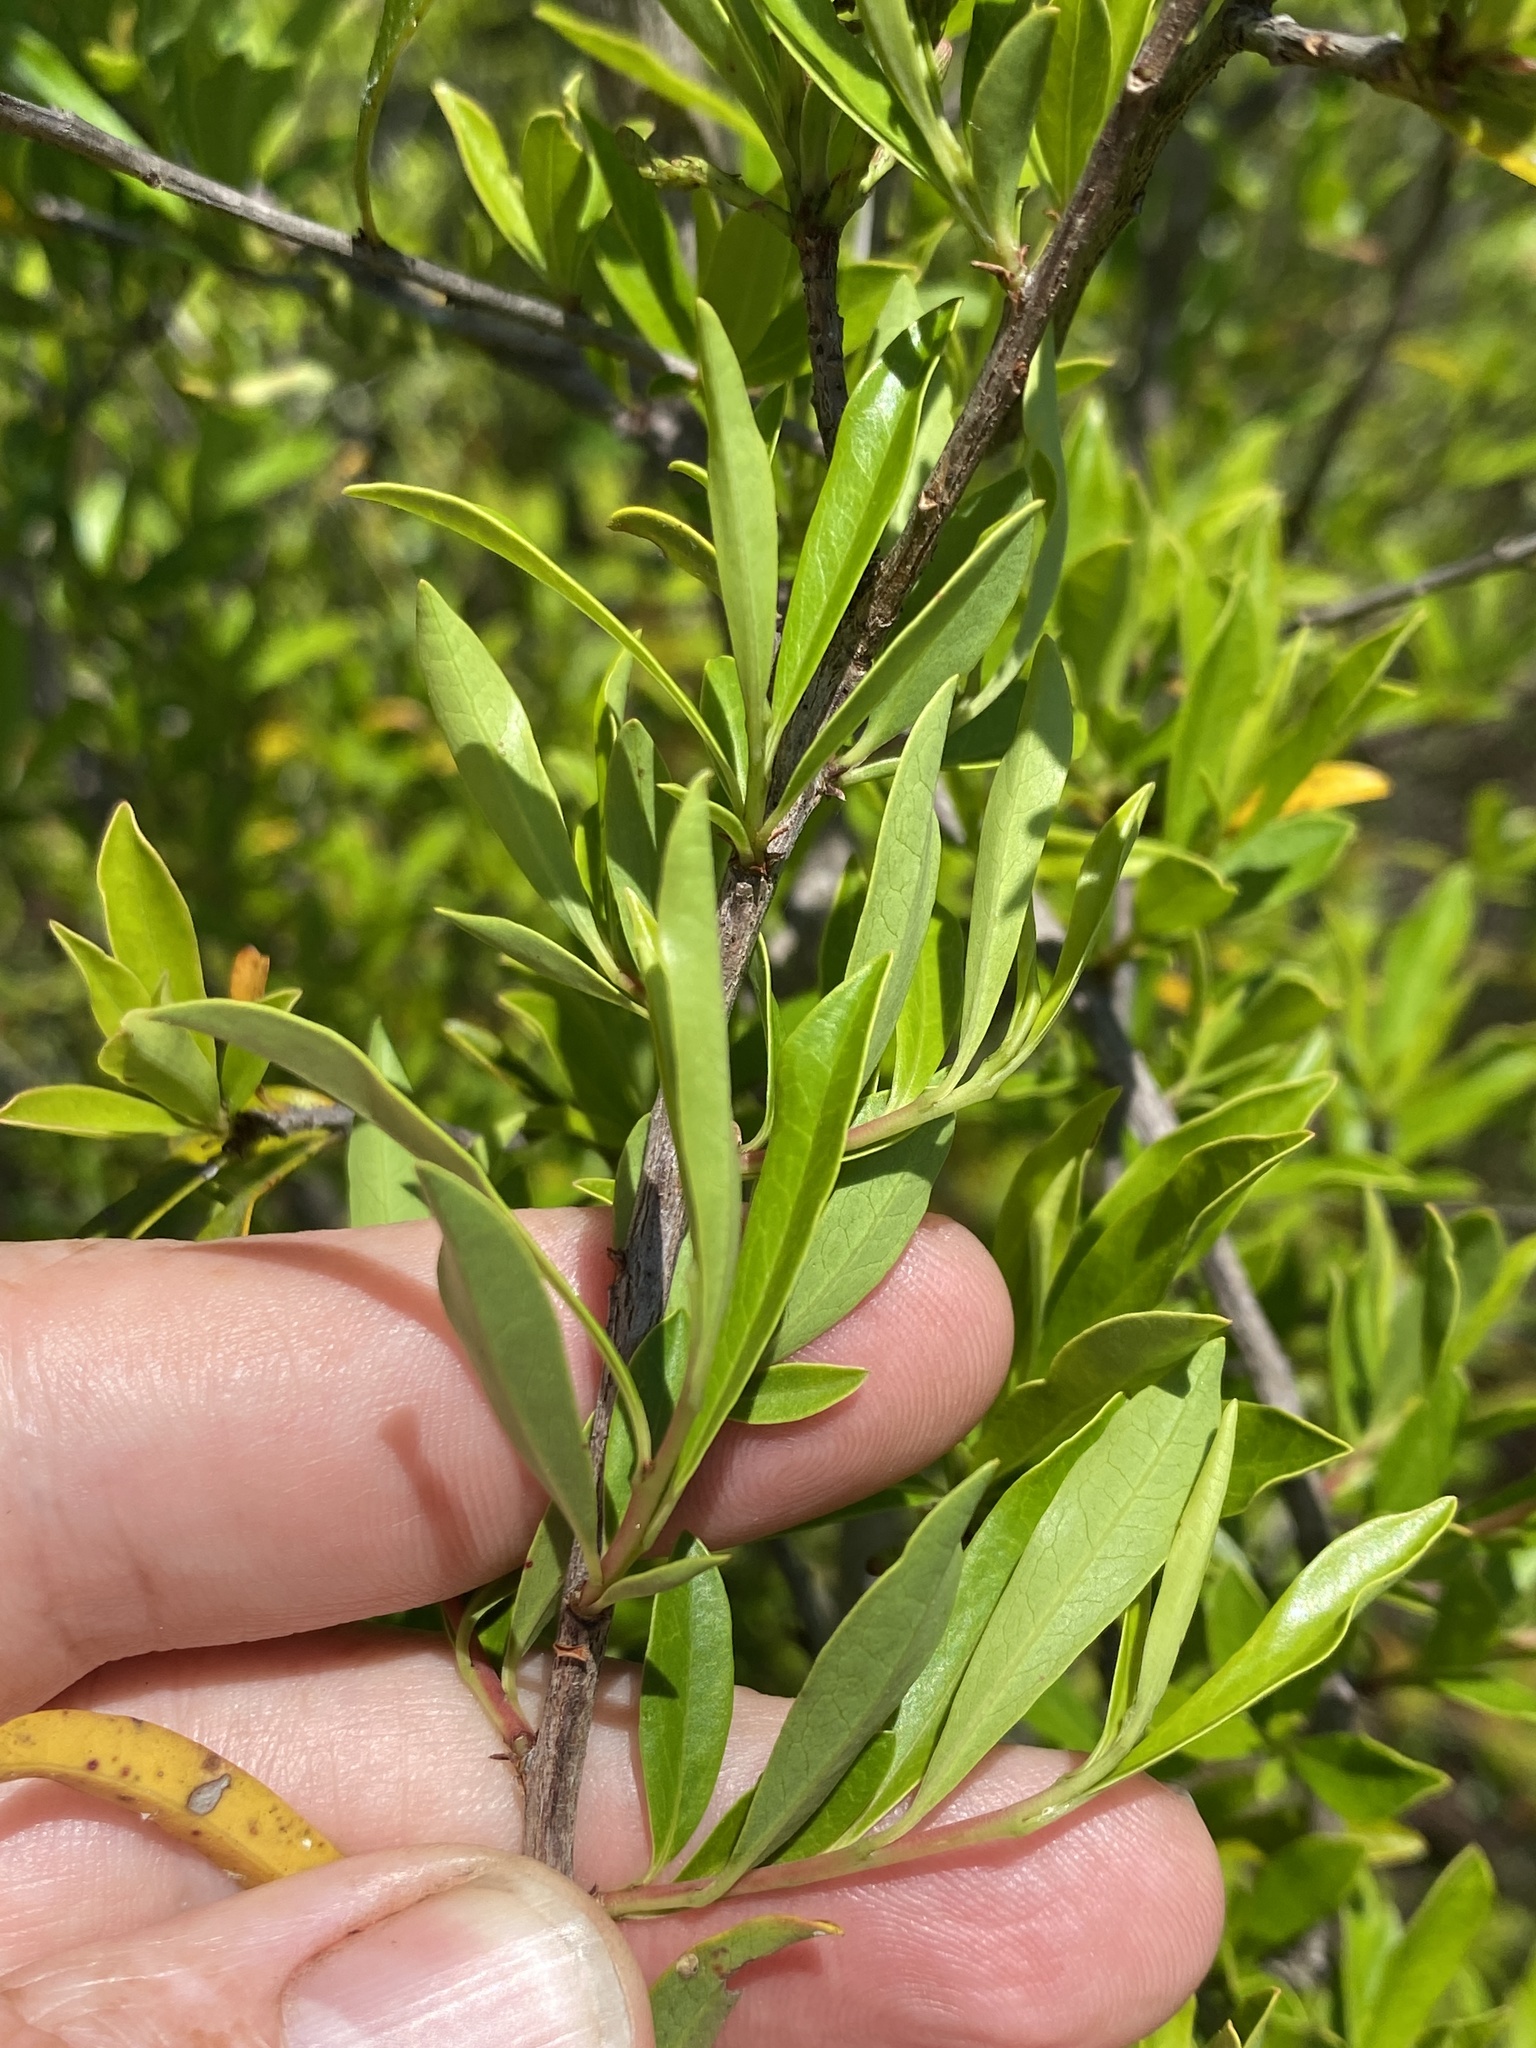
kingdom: Plantae
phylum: Tracheophyta
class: Magnoliopsida
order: Ericales
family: Cyrillaceae
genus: Cyrilla
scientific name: Cyrilla racemiflora
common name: Black titi
